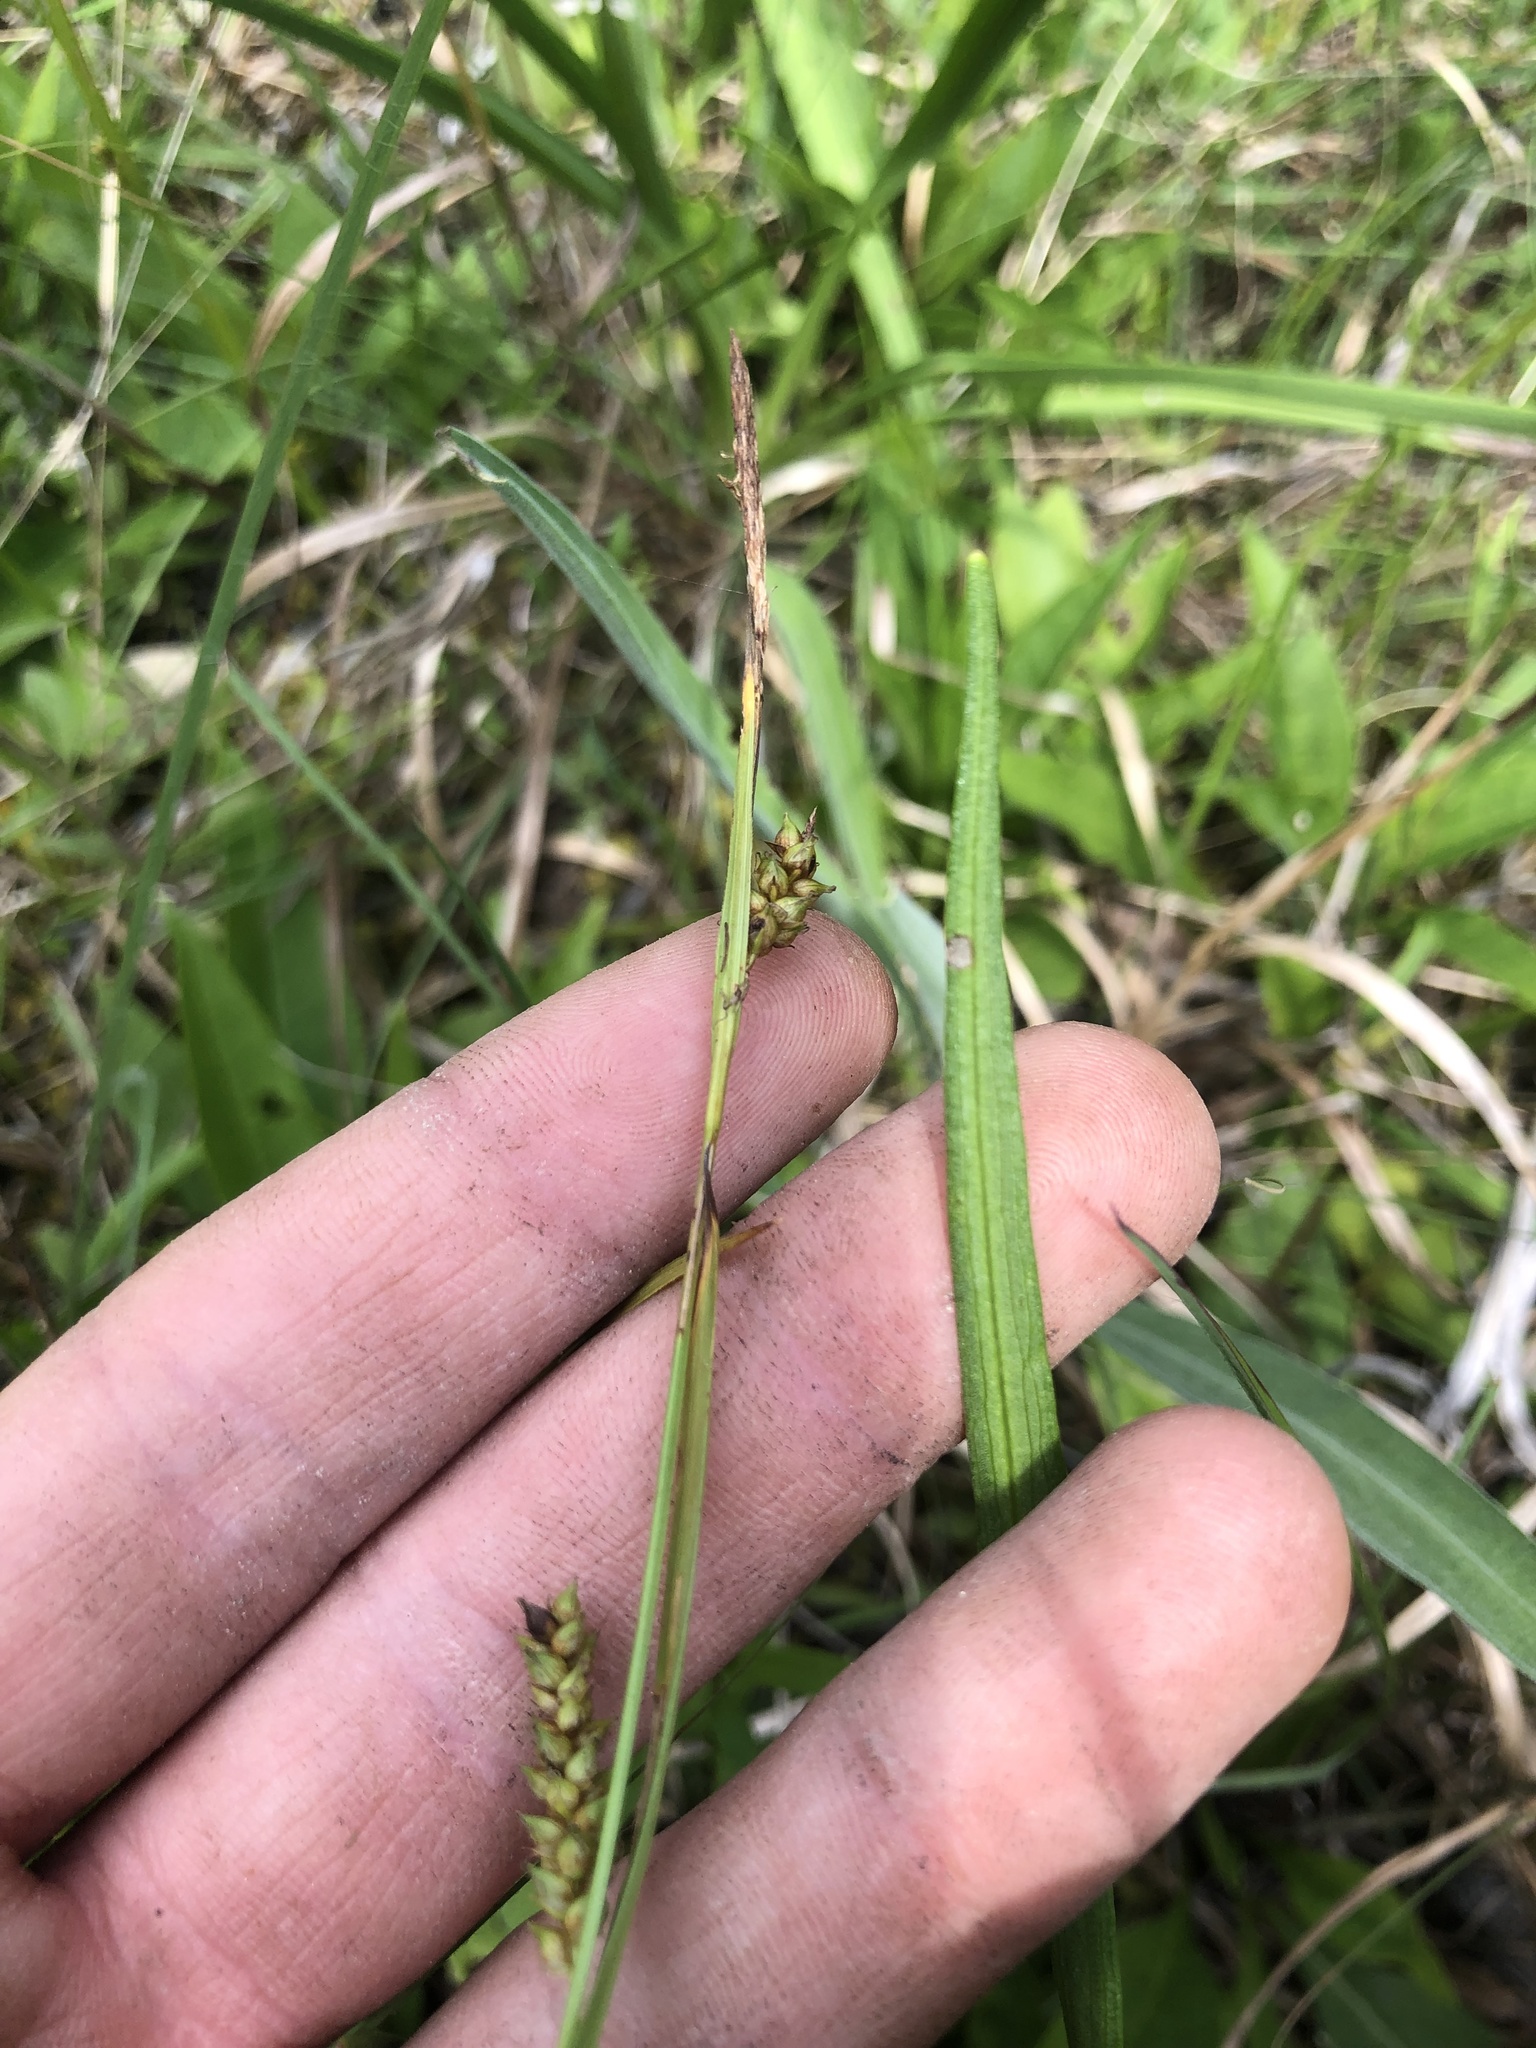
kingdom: Plantae
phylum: Tracheophyta
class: Liliopsida
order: Poales
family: Cyperaceae
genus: Carex
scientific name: Carex microdonta
